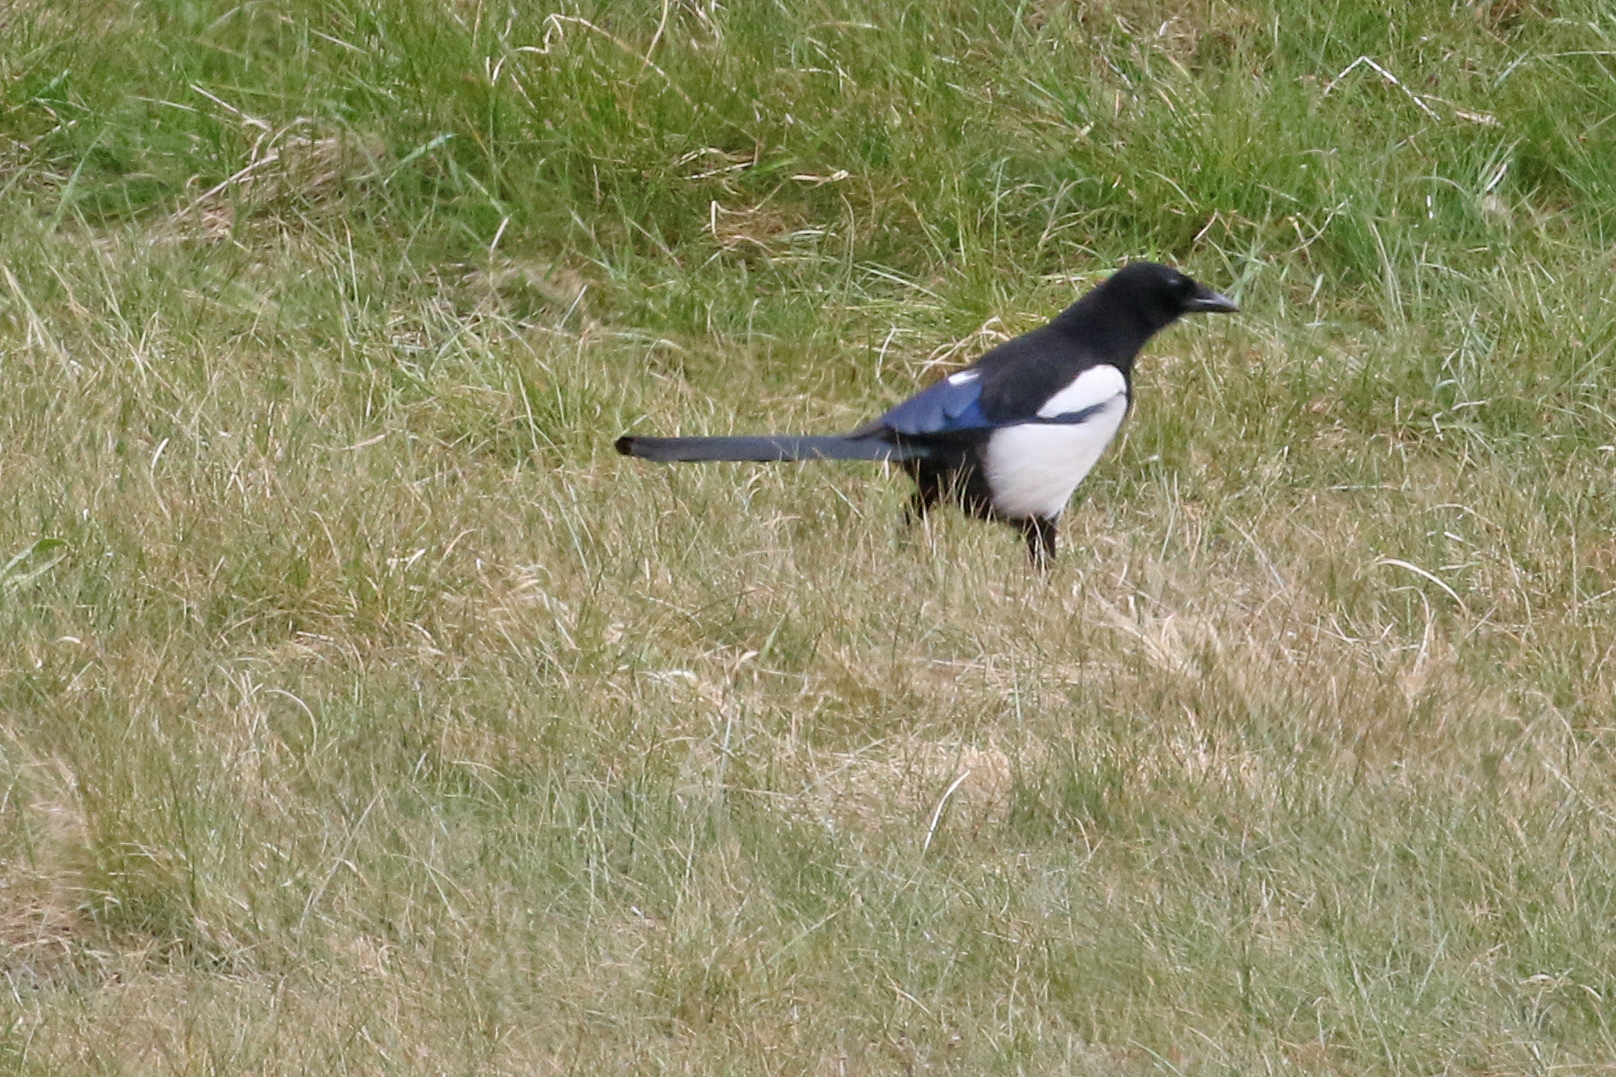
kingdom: Animalia
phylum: Chordata
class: Aves
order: Passeriformes
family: Corvidae
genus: Pica
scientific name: Pica pica
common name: Eurasian magpie
